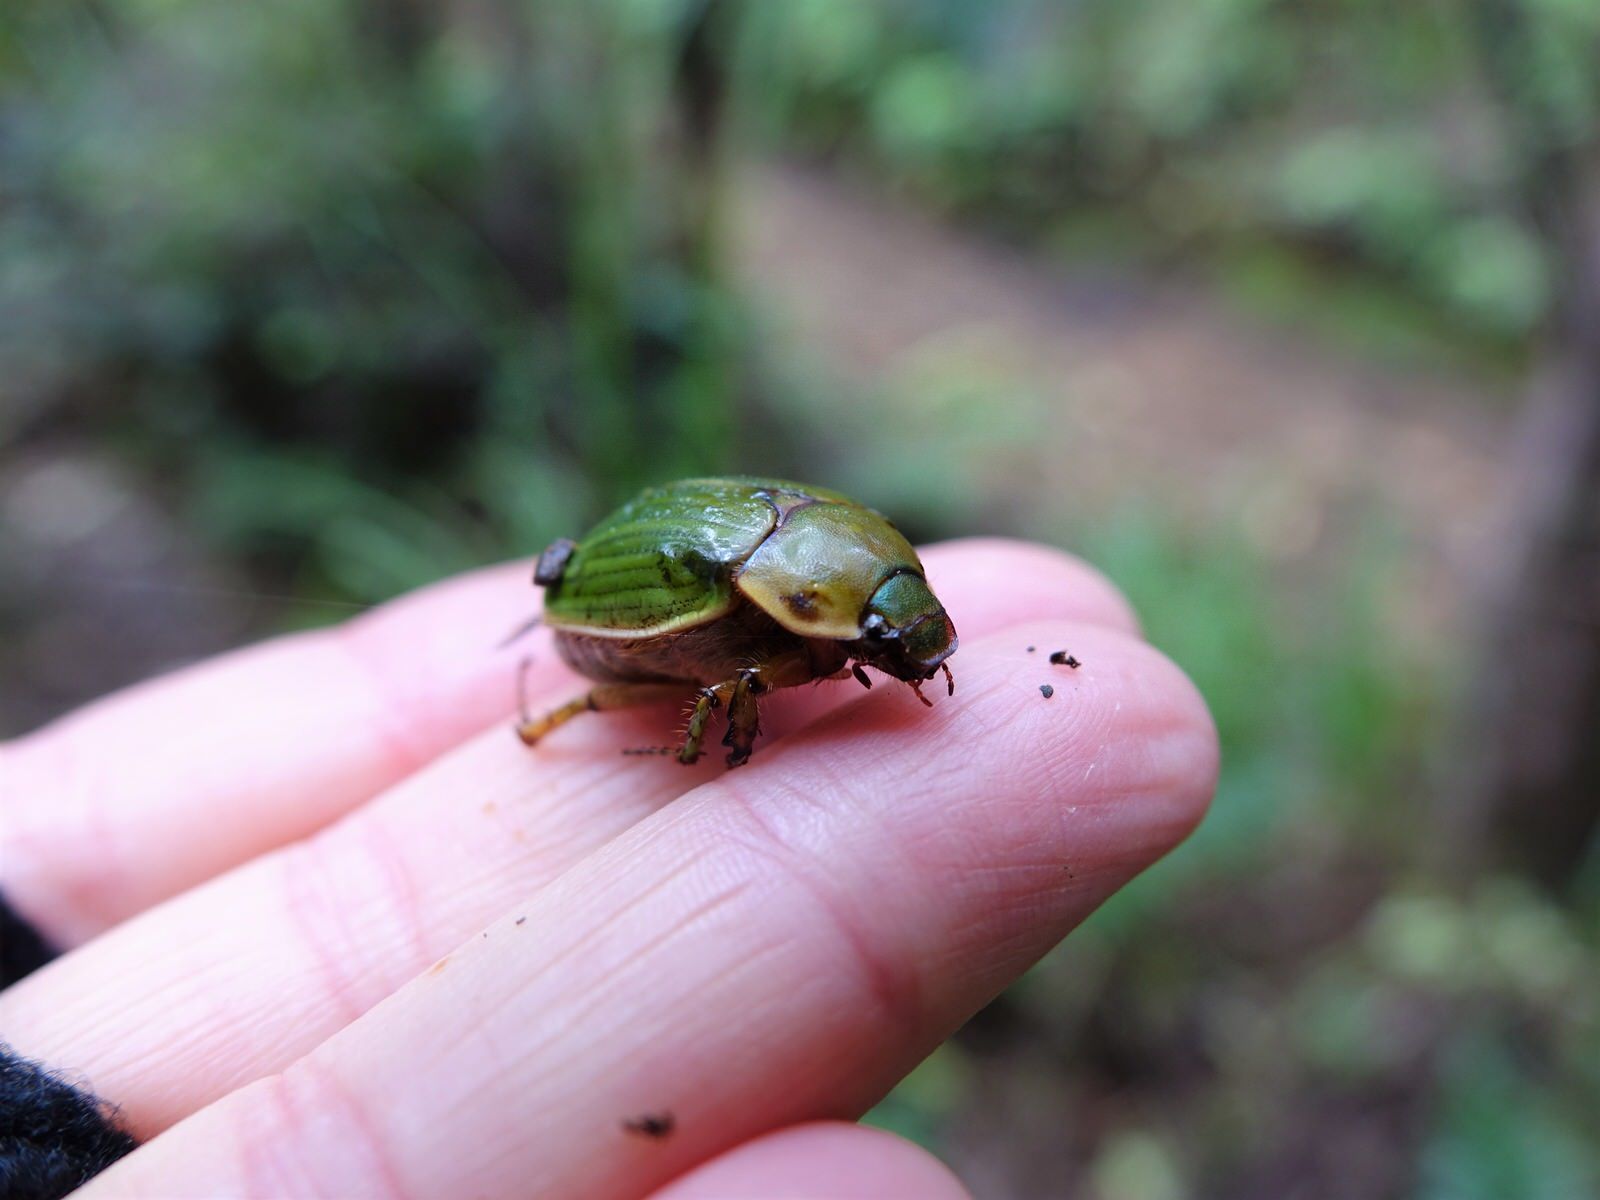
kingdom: Animalia
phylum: Arthropoda
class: Insecta
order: Coleoptera
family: Scarabaeidae
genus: Stethaspis
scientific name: Stethaspis longicornis
